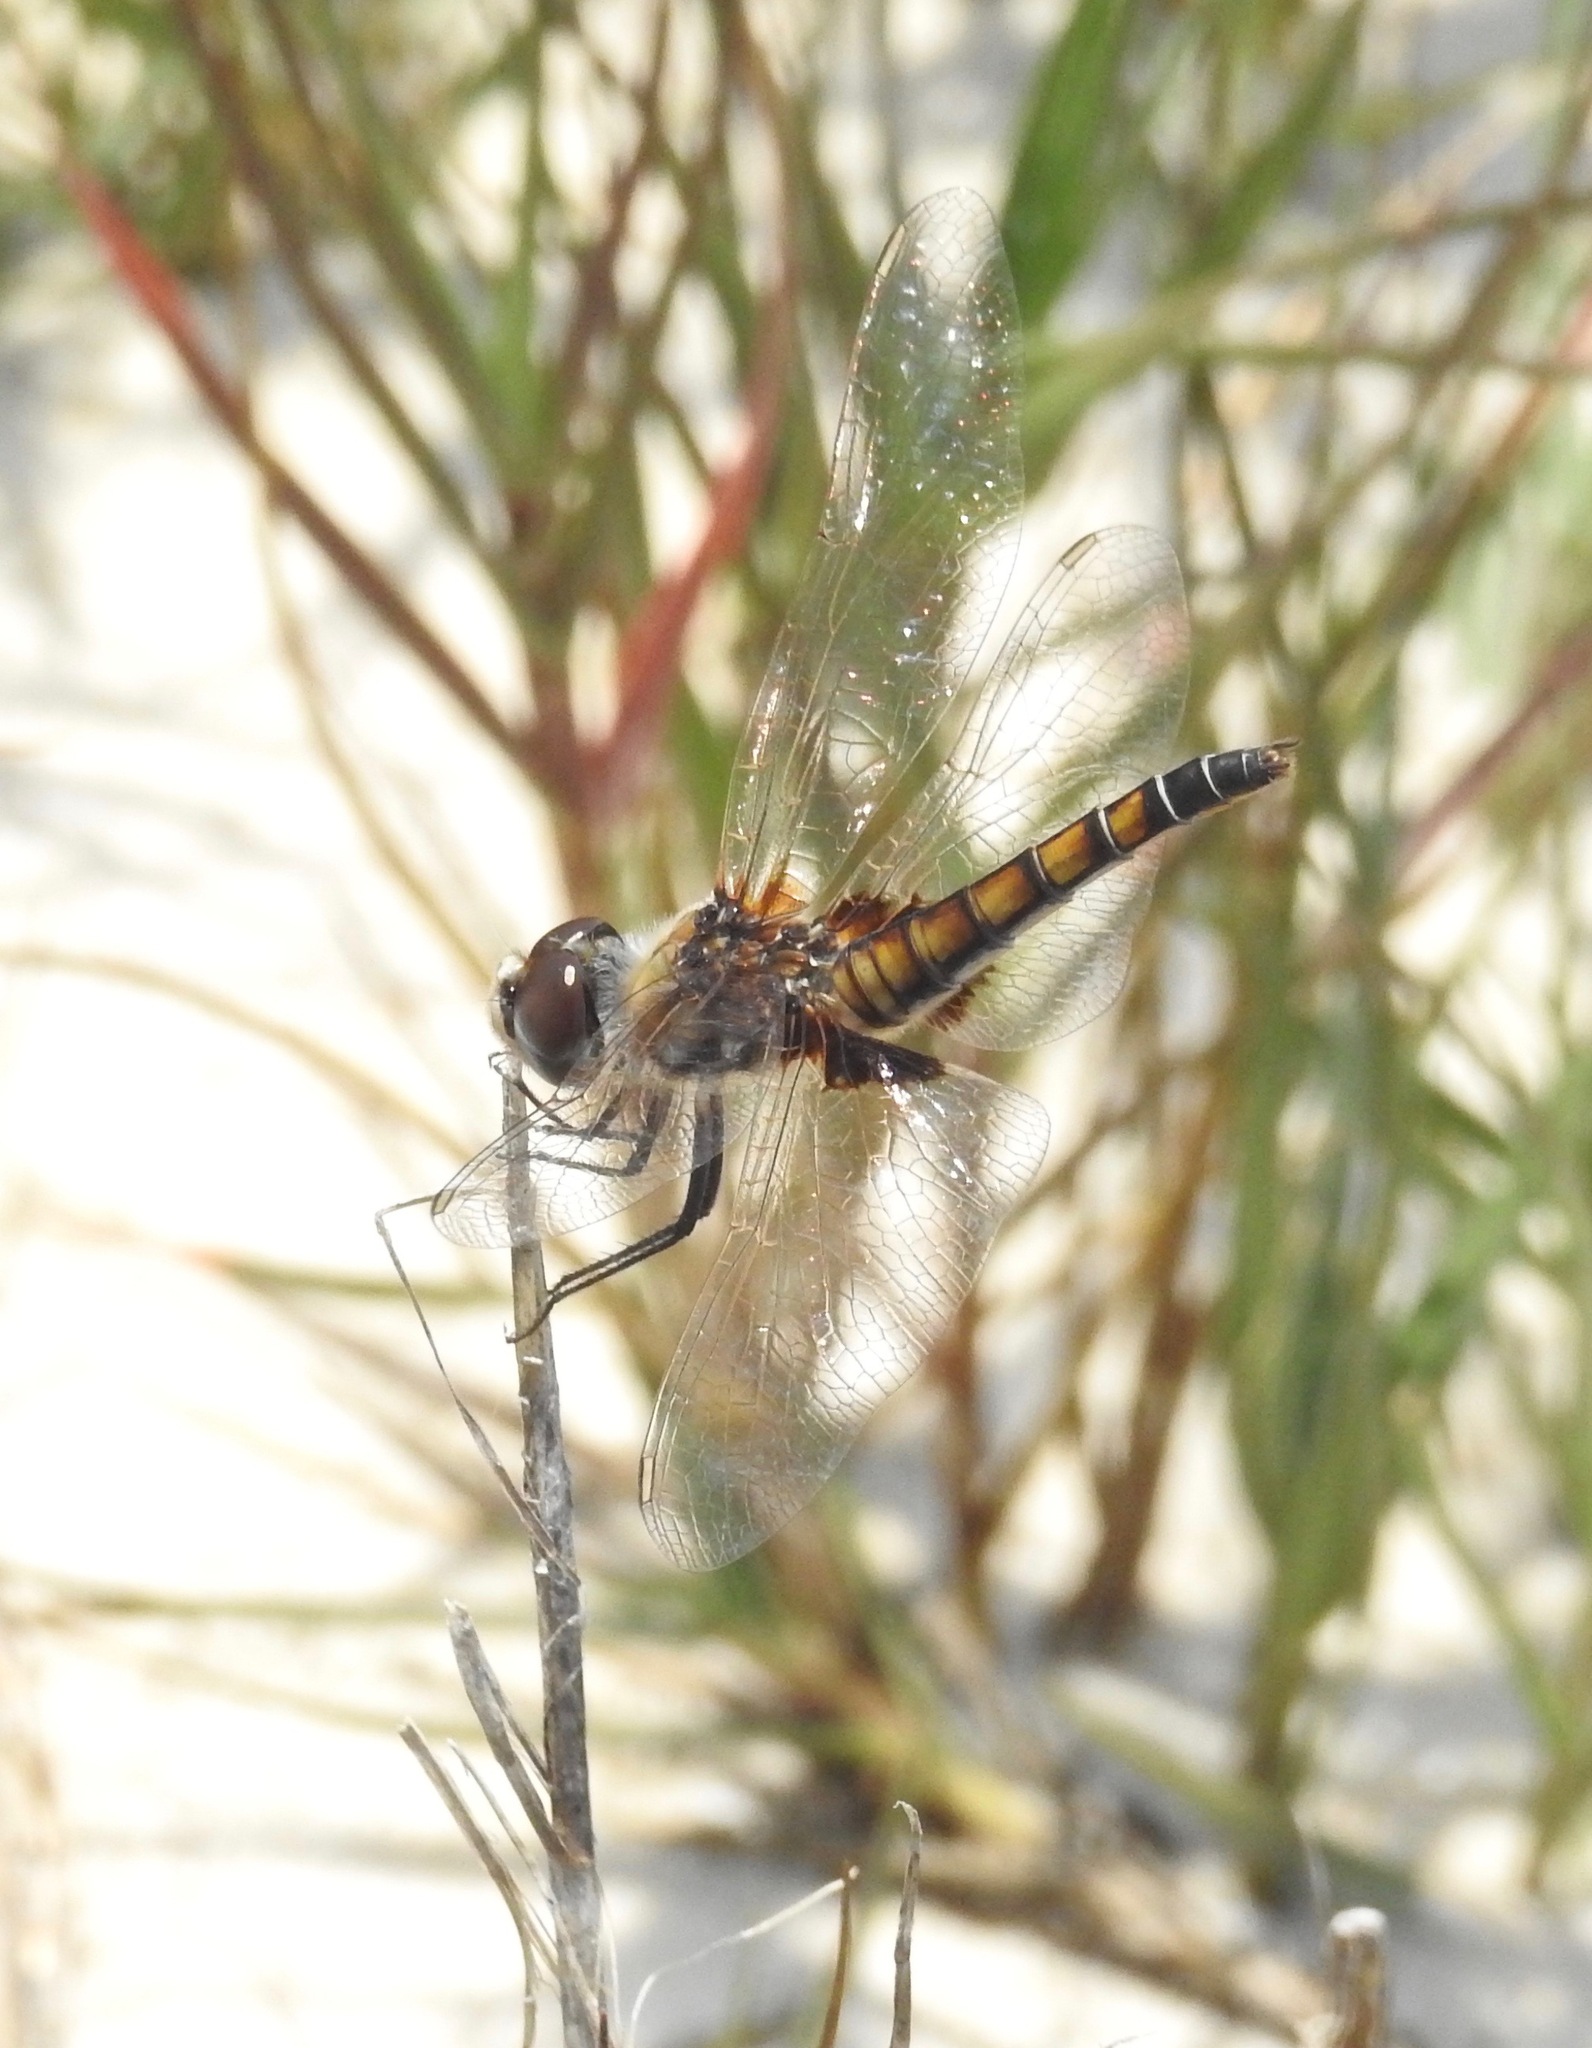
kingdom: Animalia
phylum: Arthropoda
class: Insecta
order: Odonata
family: Libellulidae
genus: Macrodiplax
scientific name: Macrodiplax balteata
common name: Marl pennant
